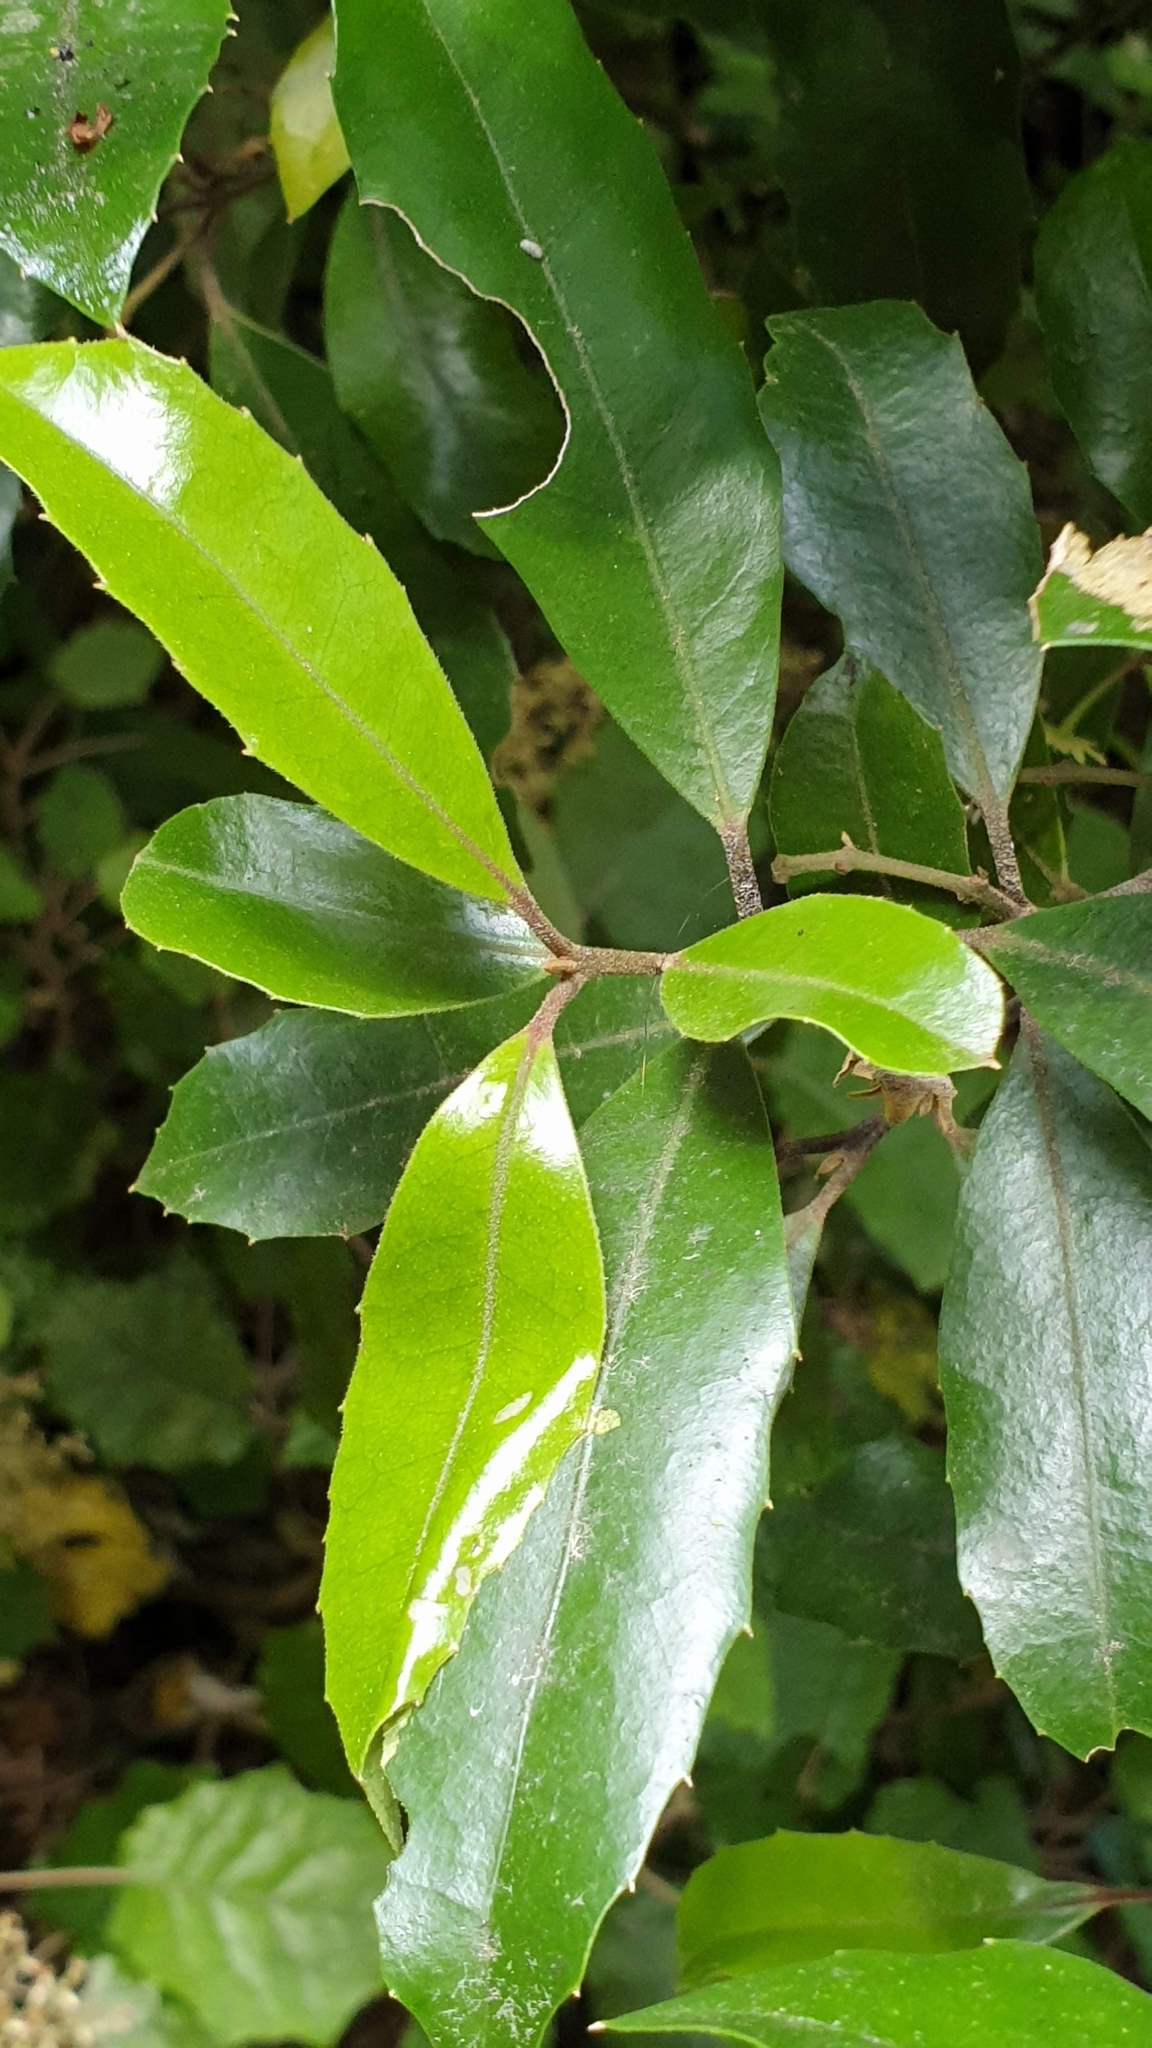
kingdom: Plantae
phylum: Tracheophyta
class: Magnoliopsida
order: Laurales
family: Monimiaceae
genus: Hedycarya
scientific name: Hedycarya arborea
